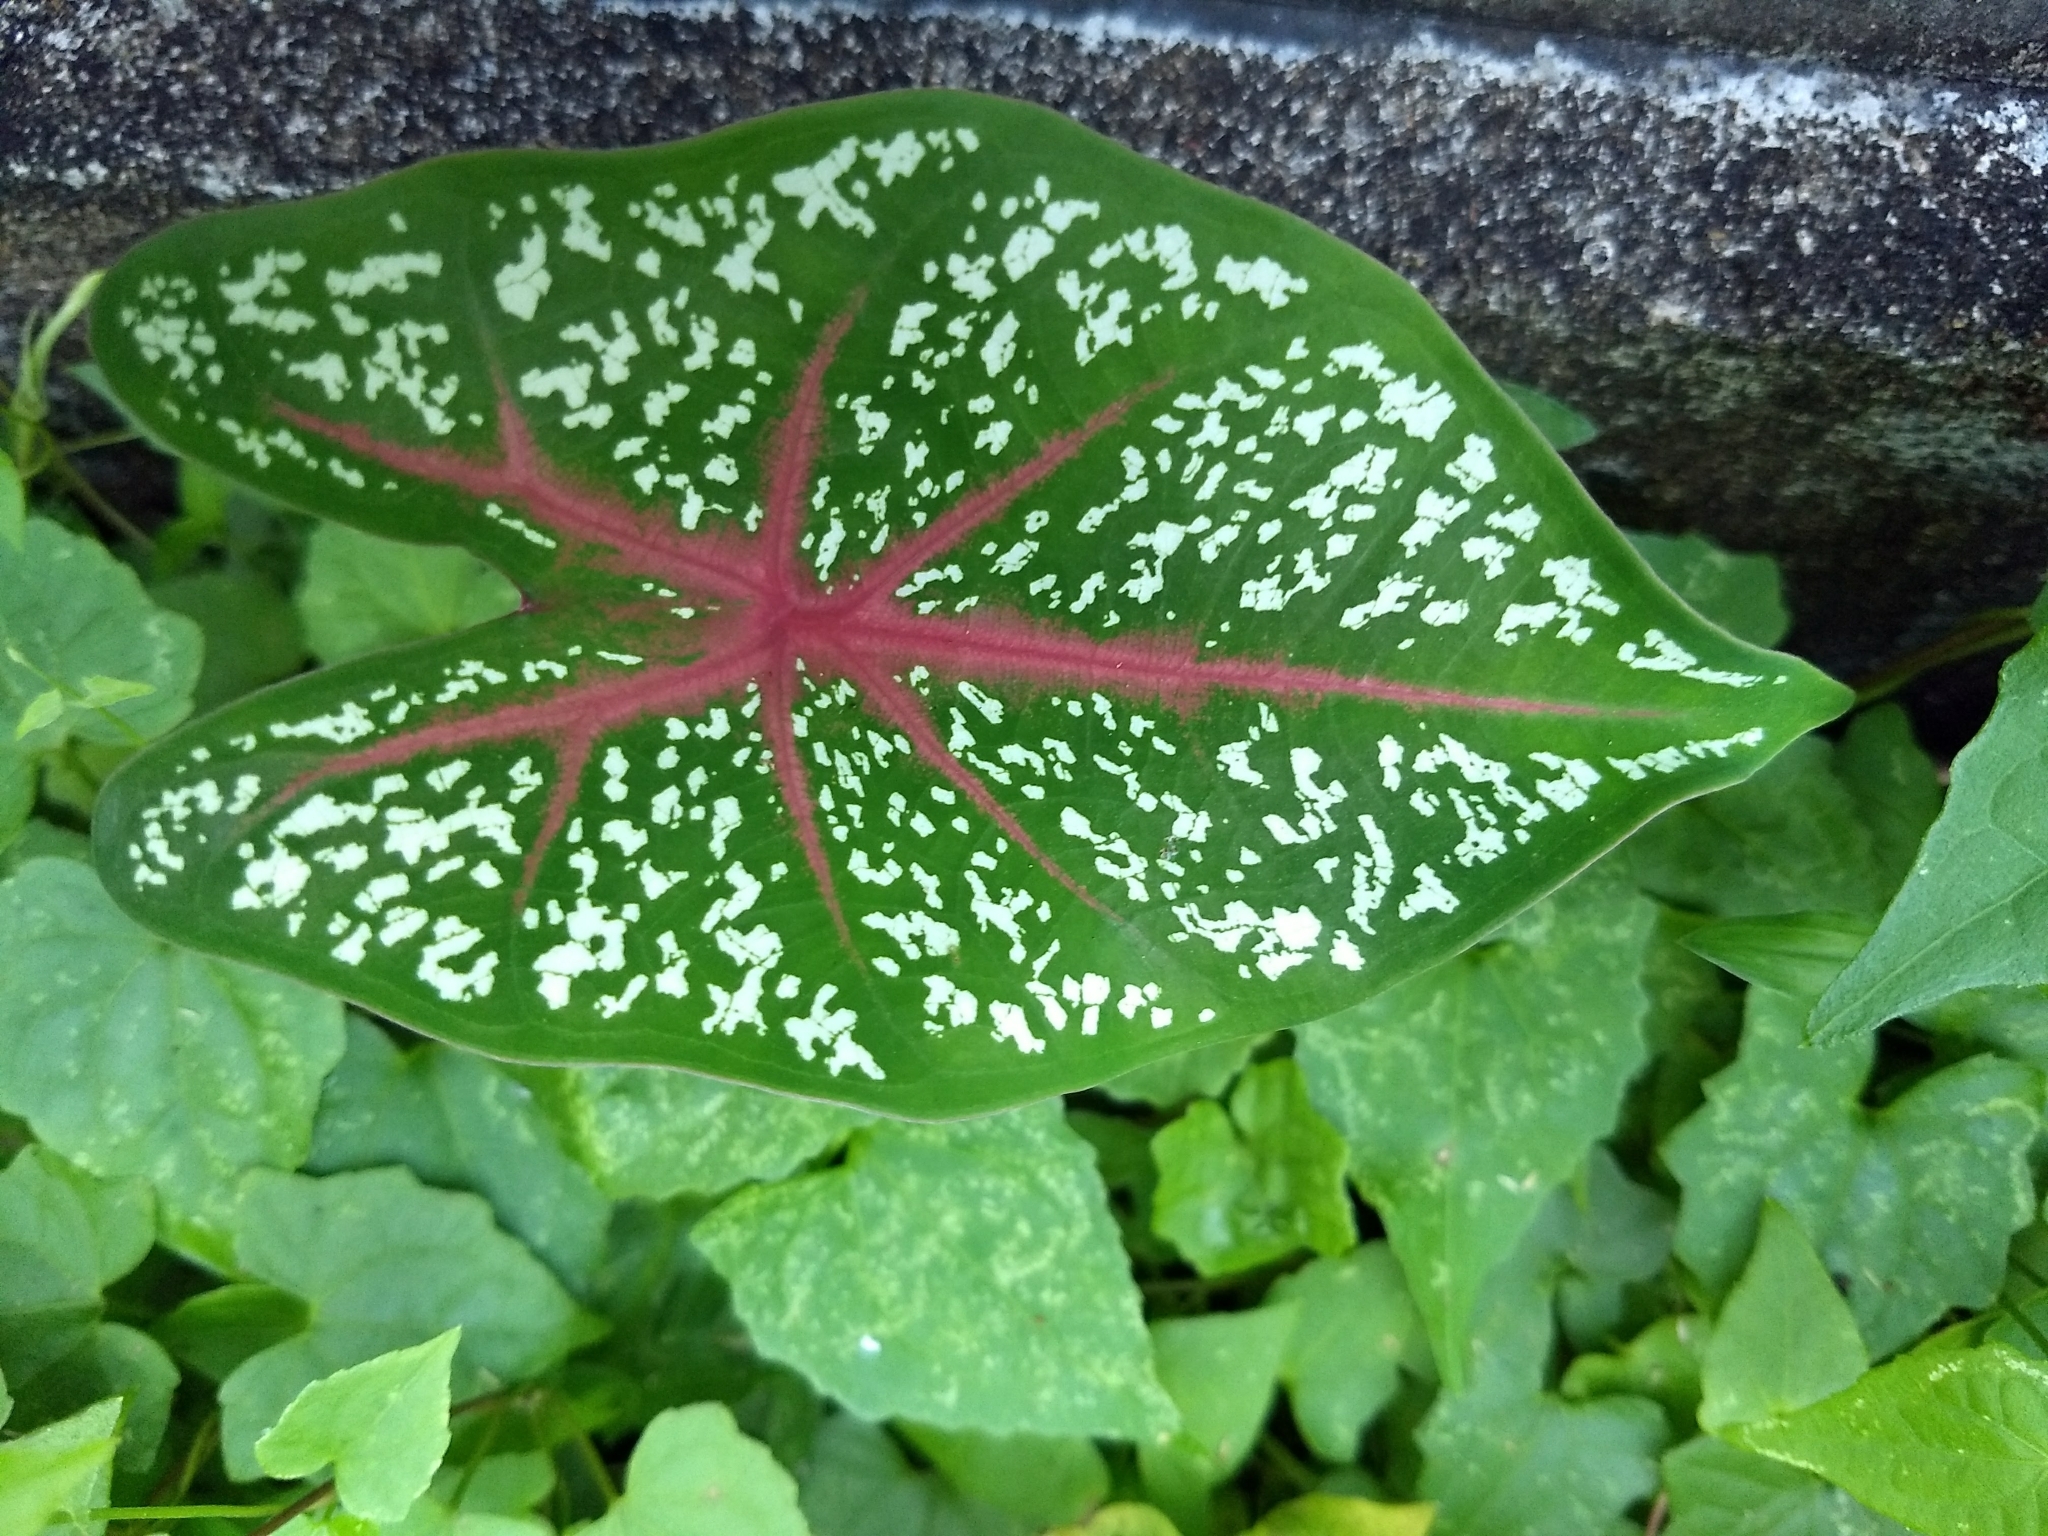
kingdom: Plantae
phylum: Tracheophyta
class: Liliopsida
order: Alismatales
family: Araceae
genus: Caladium
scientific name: Caladium bicolor
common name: Artist's pallet
